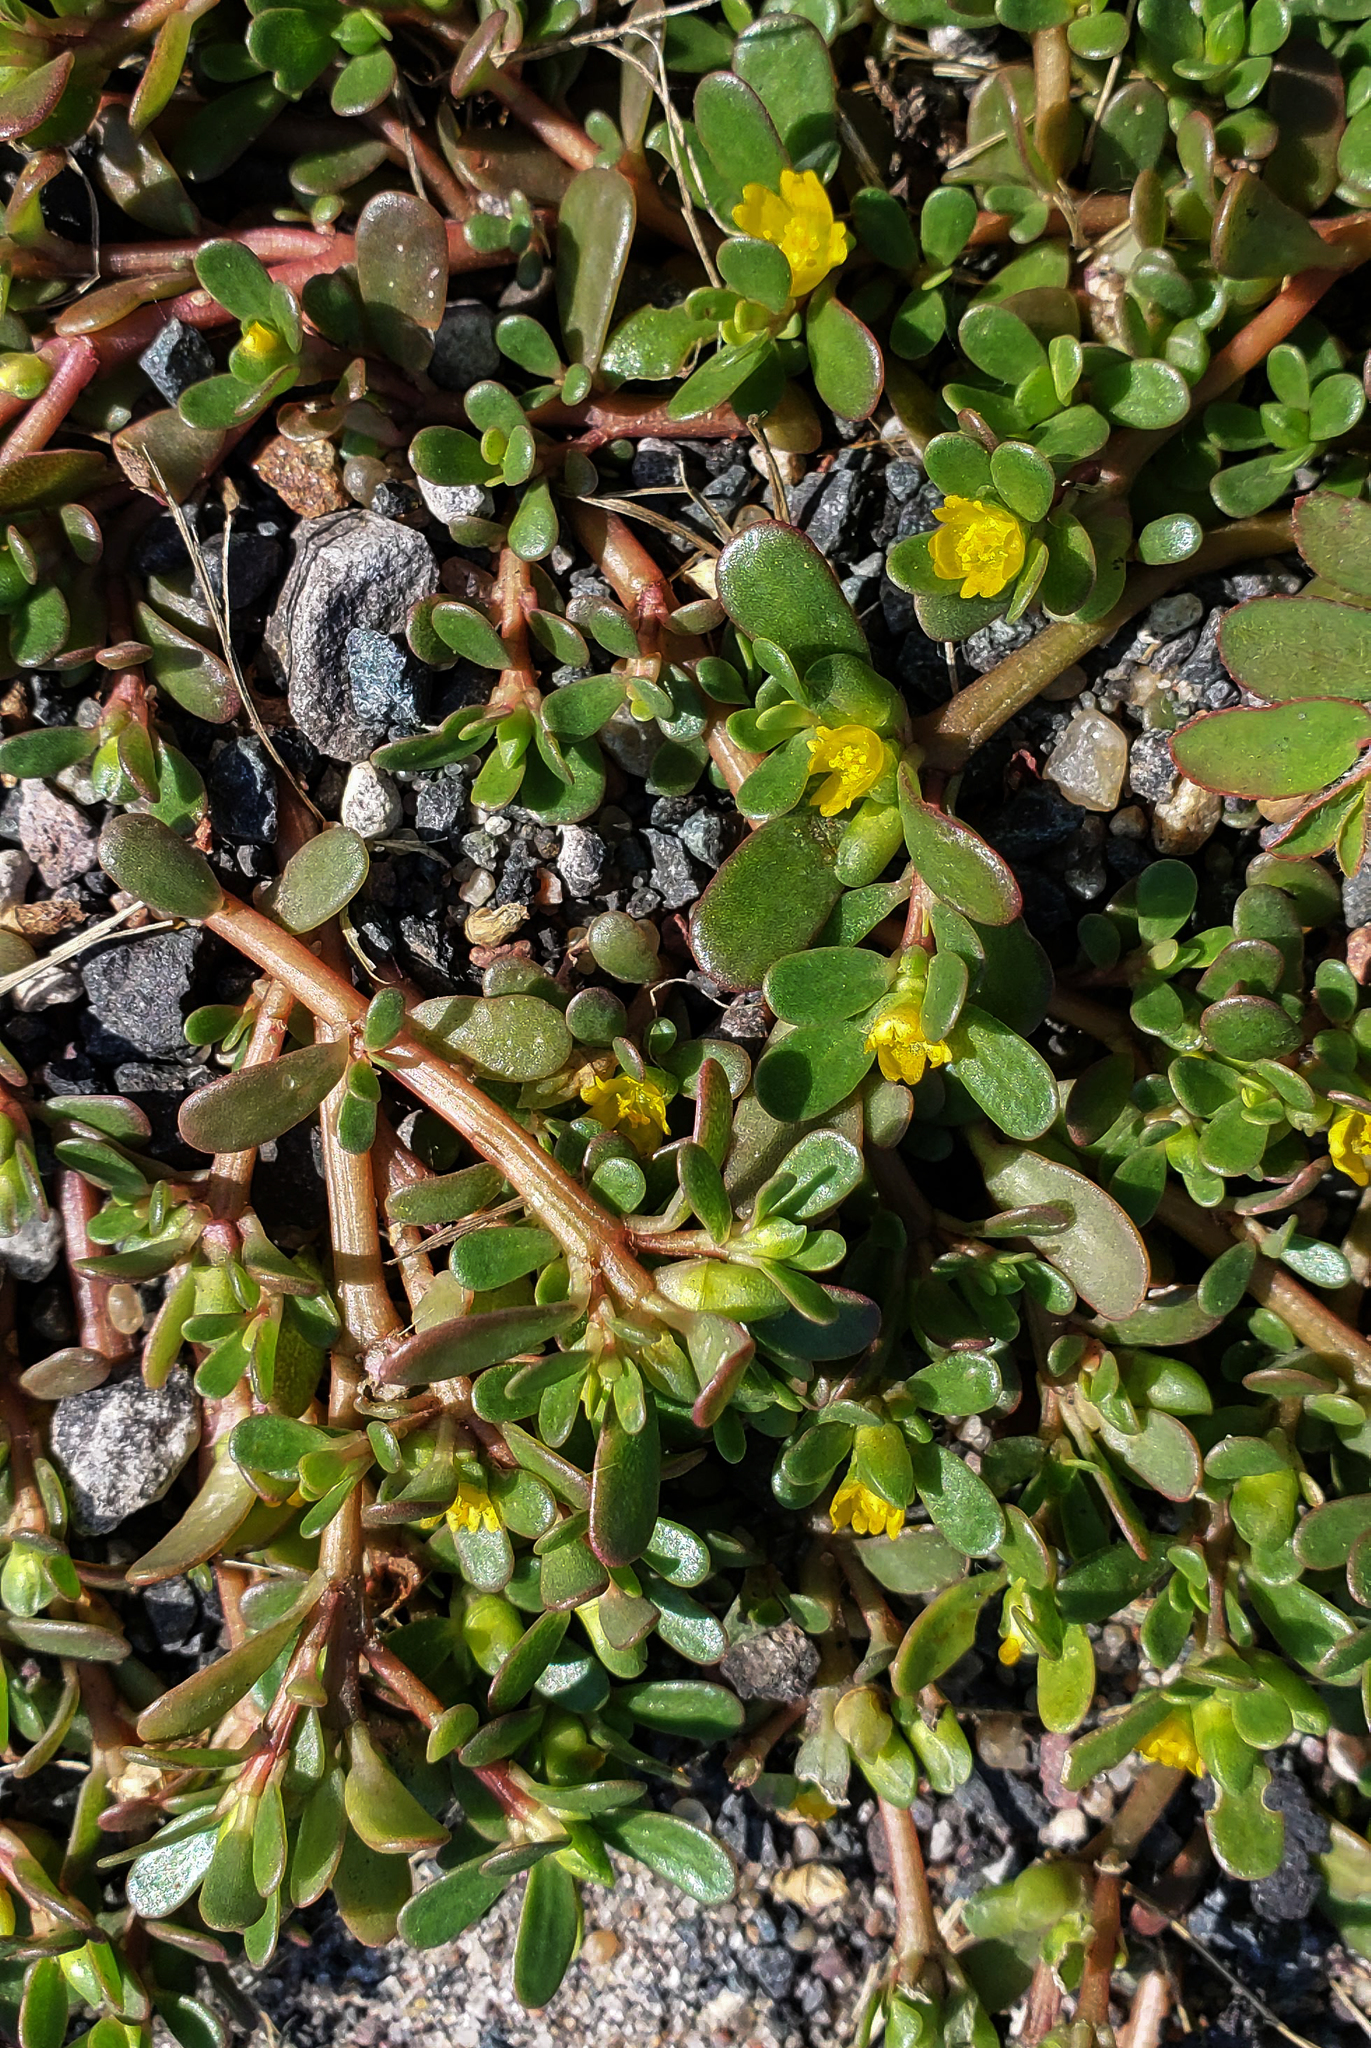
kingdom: Plantae
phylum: Tracheophyta
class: Magnoliopsida
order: Caryophyllales
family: Portulacaceae
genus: Portulaca
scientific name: Portulaca oleracea
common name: Common purslane
